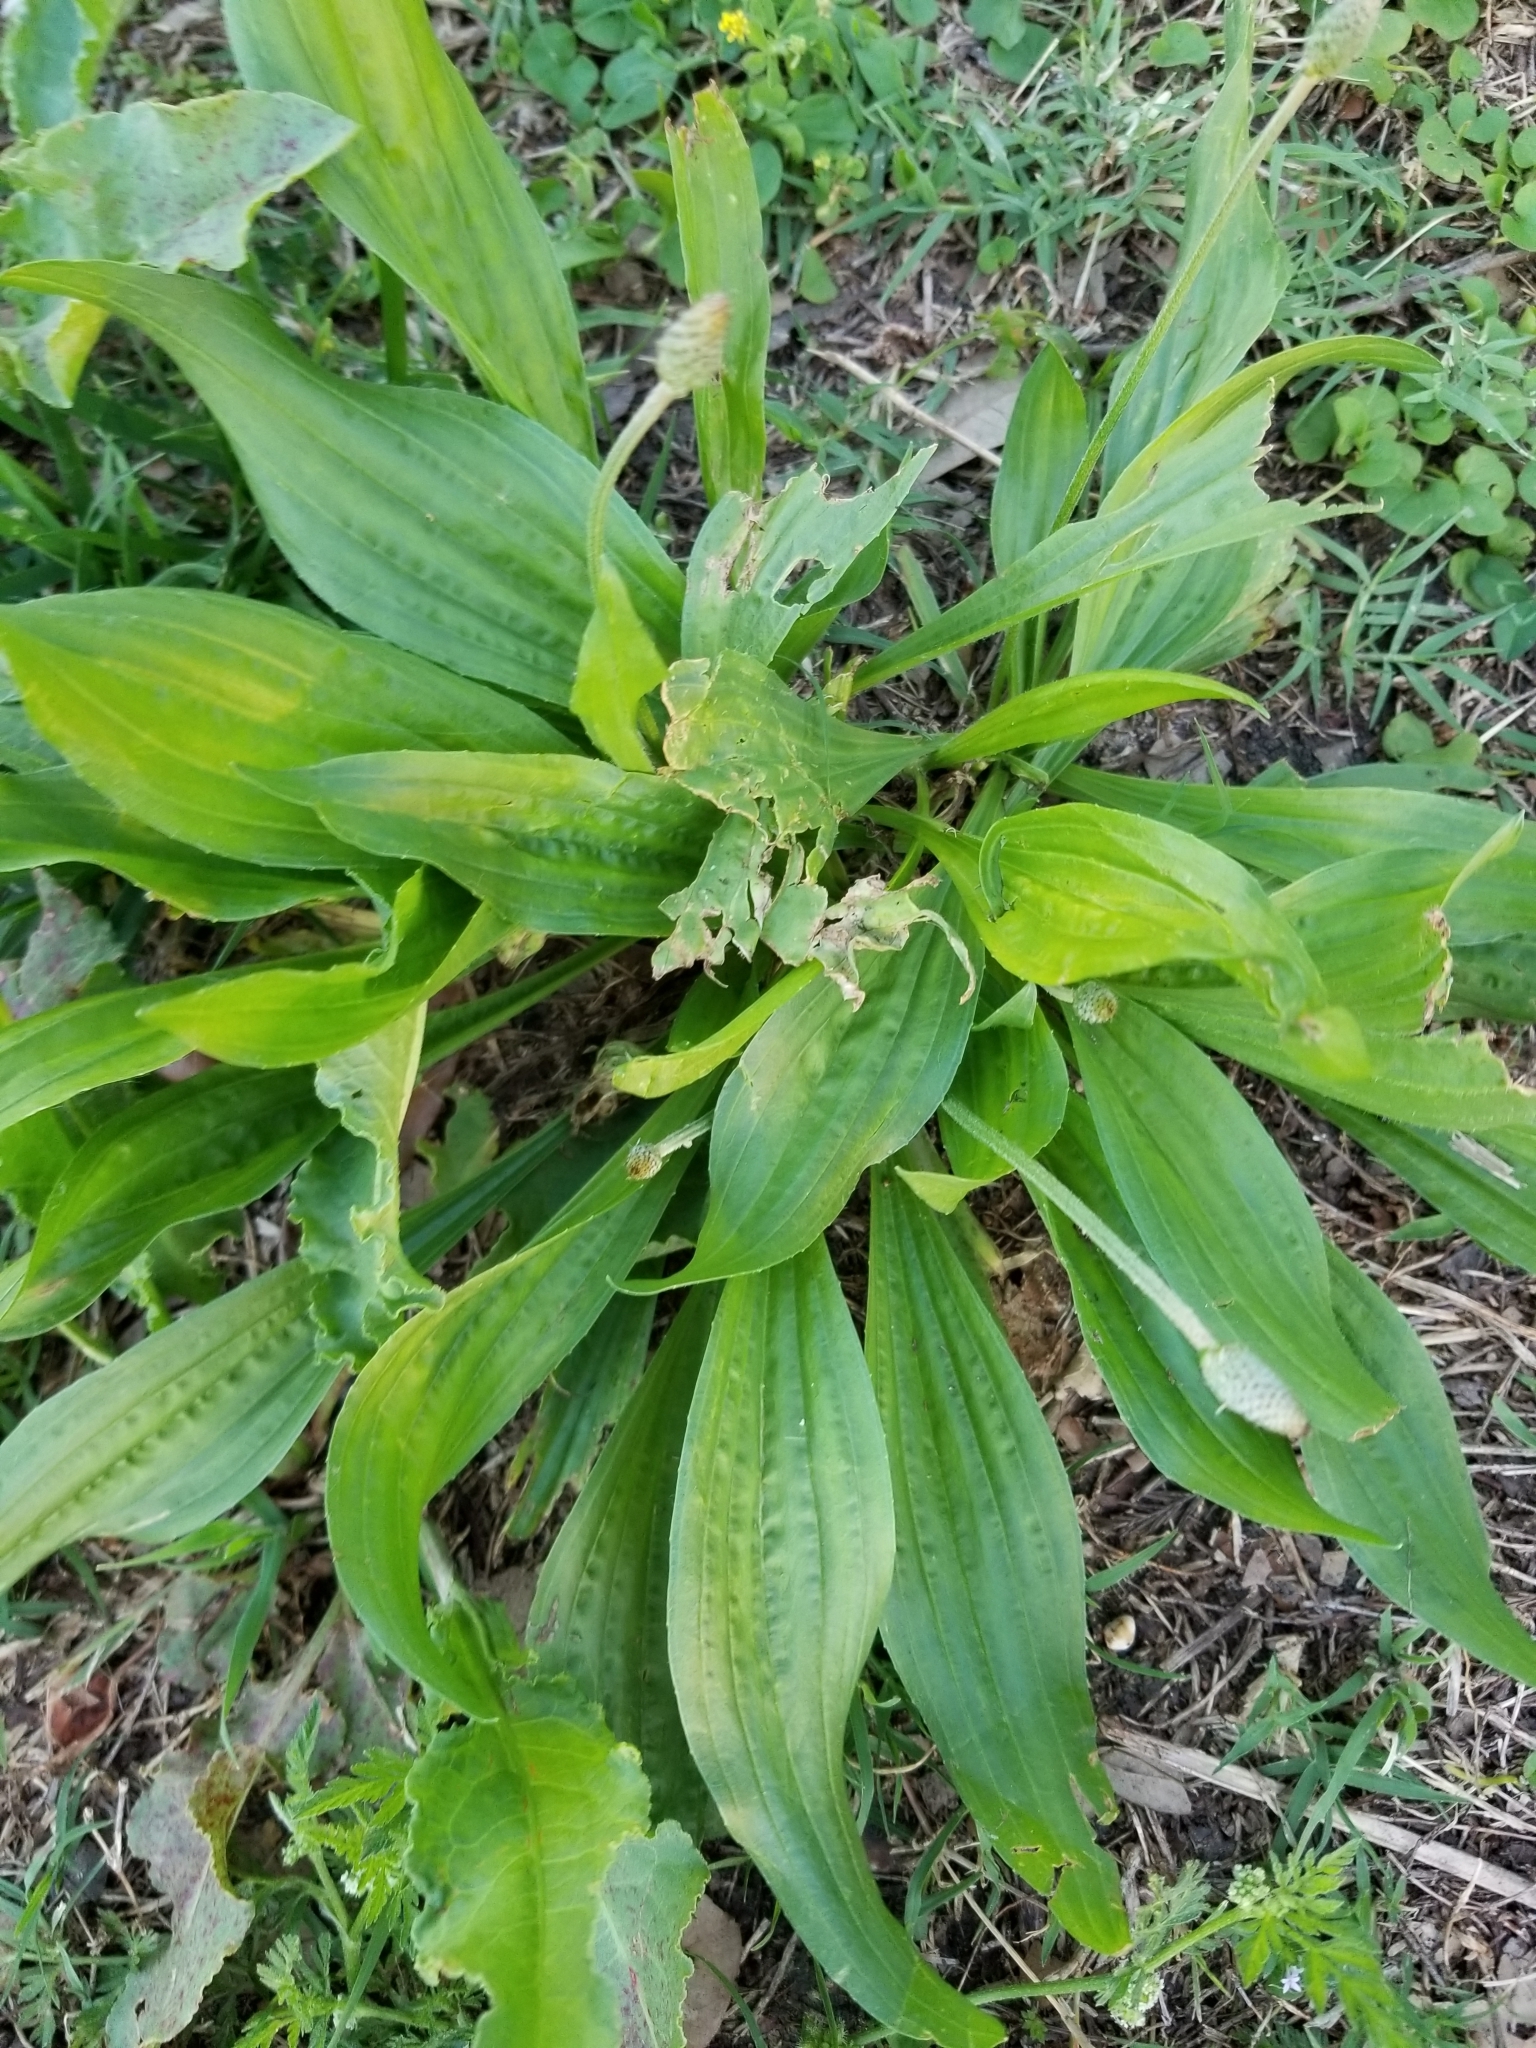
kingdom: Plantae
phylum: Tracheophyta
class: Magnoliopsida
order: Lamiales
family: Plantaginaceae
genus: Plantago
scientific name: Plantago lanceolata
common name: Ribwort plantain
